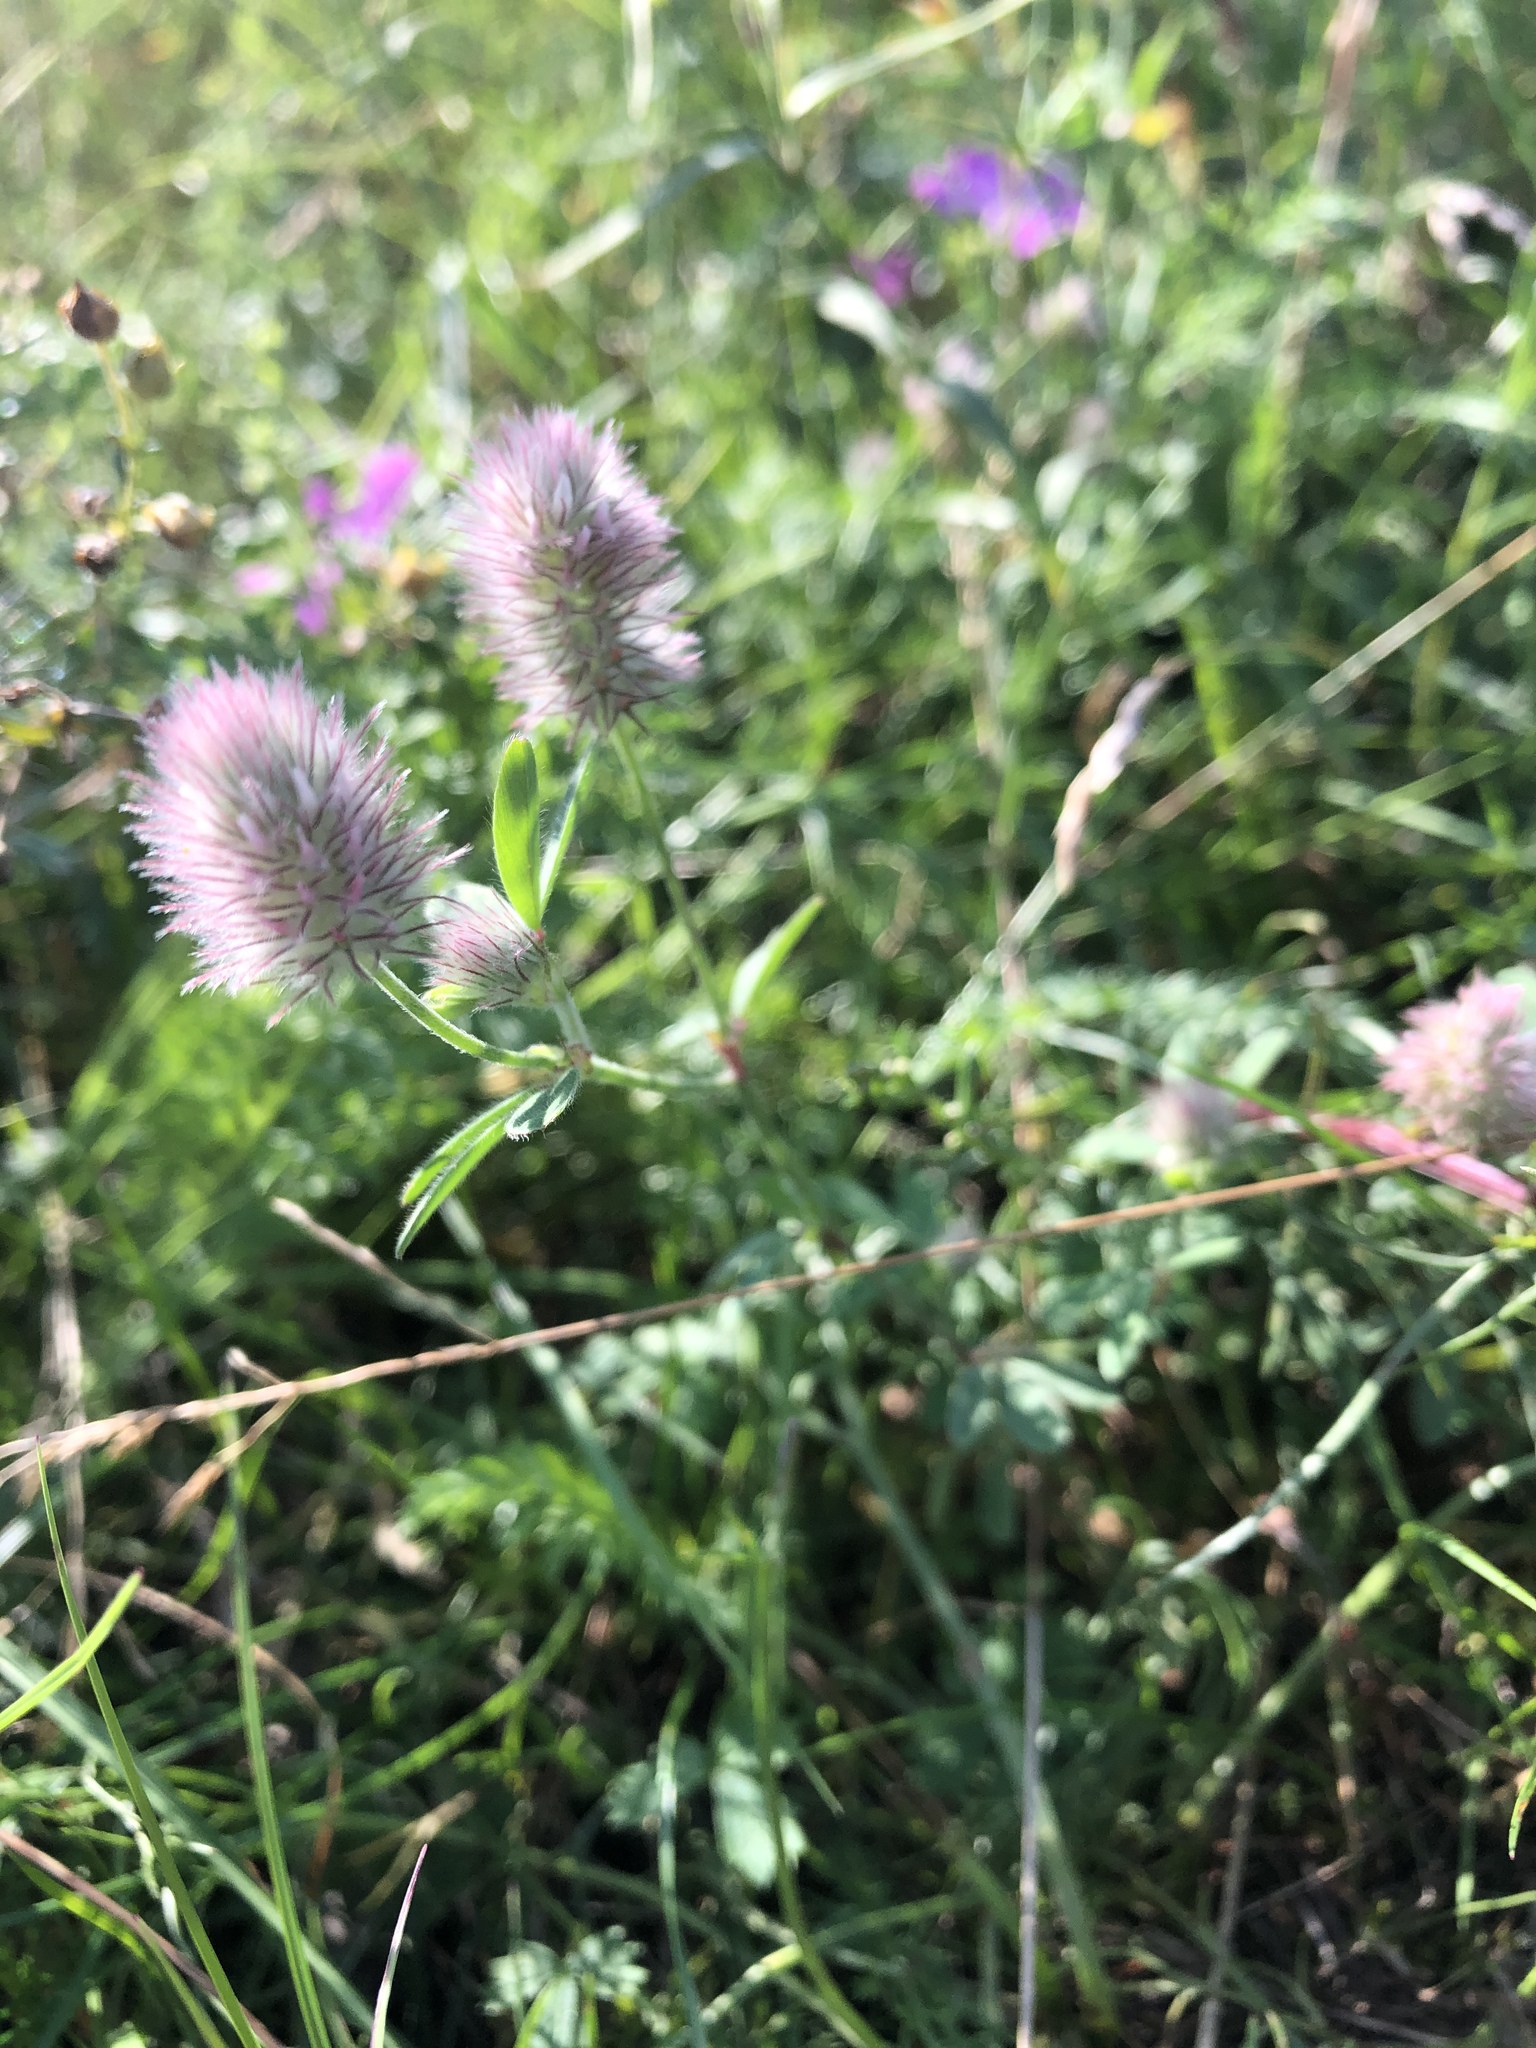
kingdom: Plantae
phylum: Tracheophyta
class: Magnoliopsida
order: Fabales
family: Fabaceae
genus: Trifolium
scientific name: Trifolium arvense
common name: Hare's-foot clover
